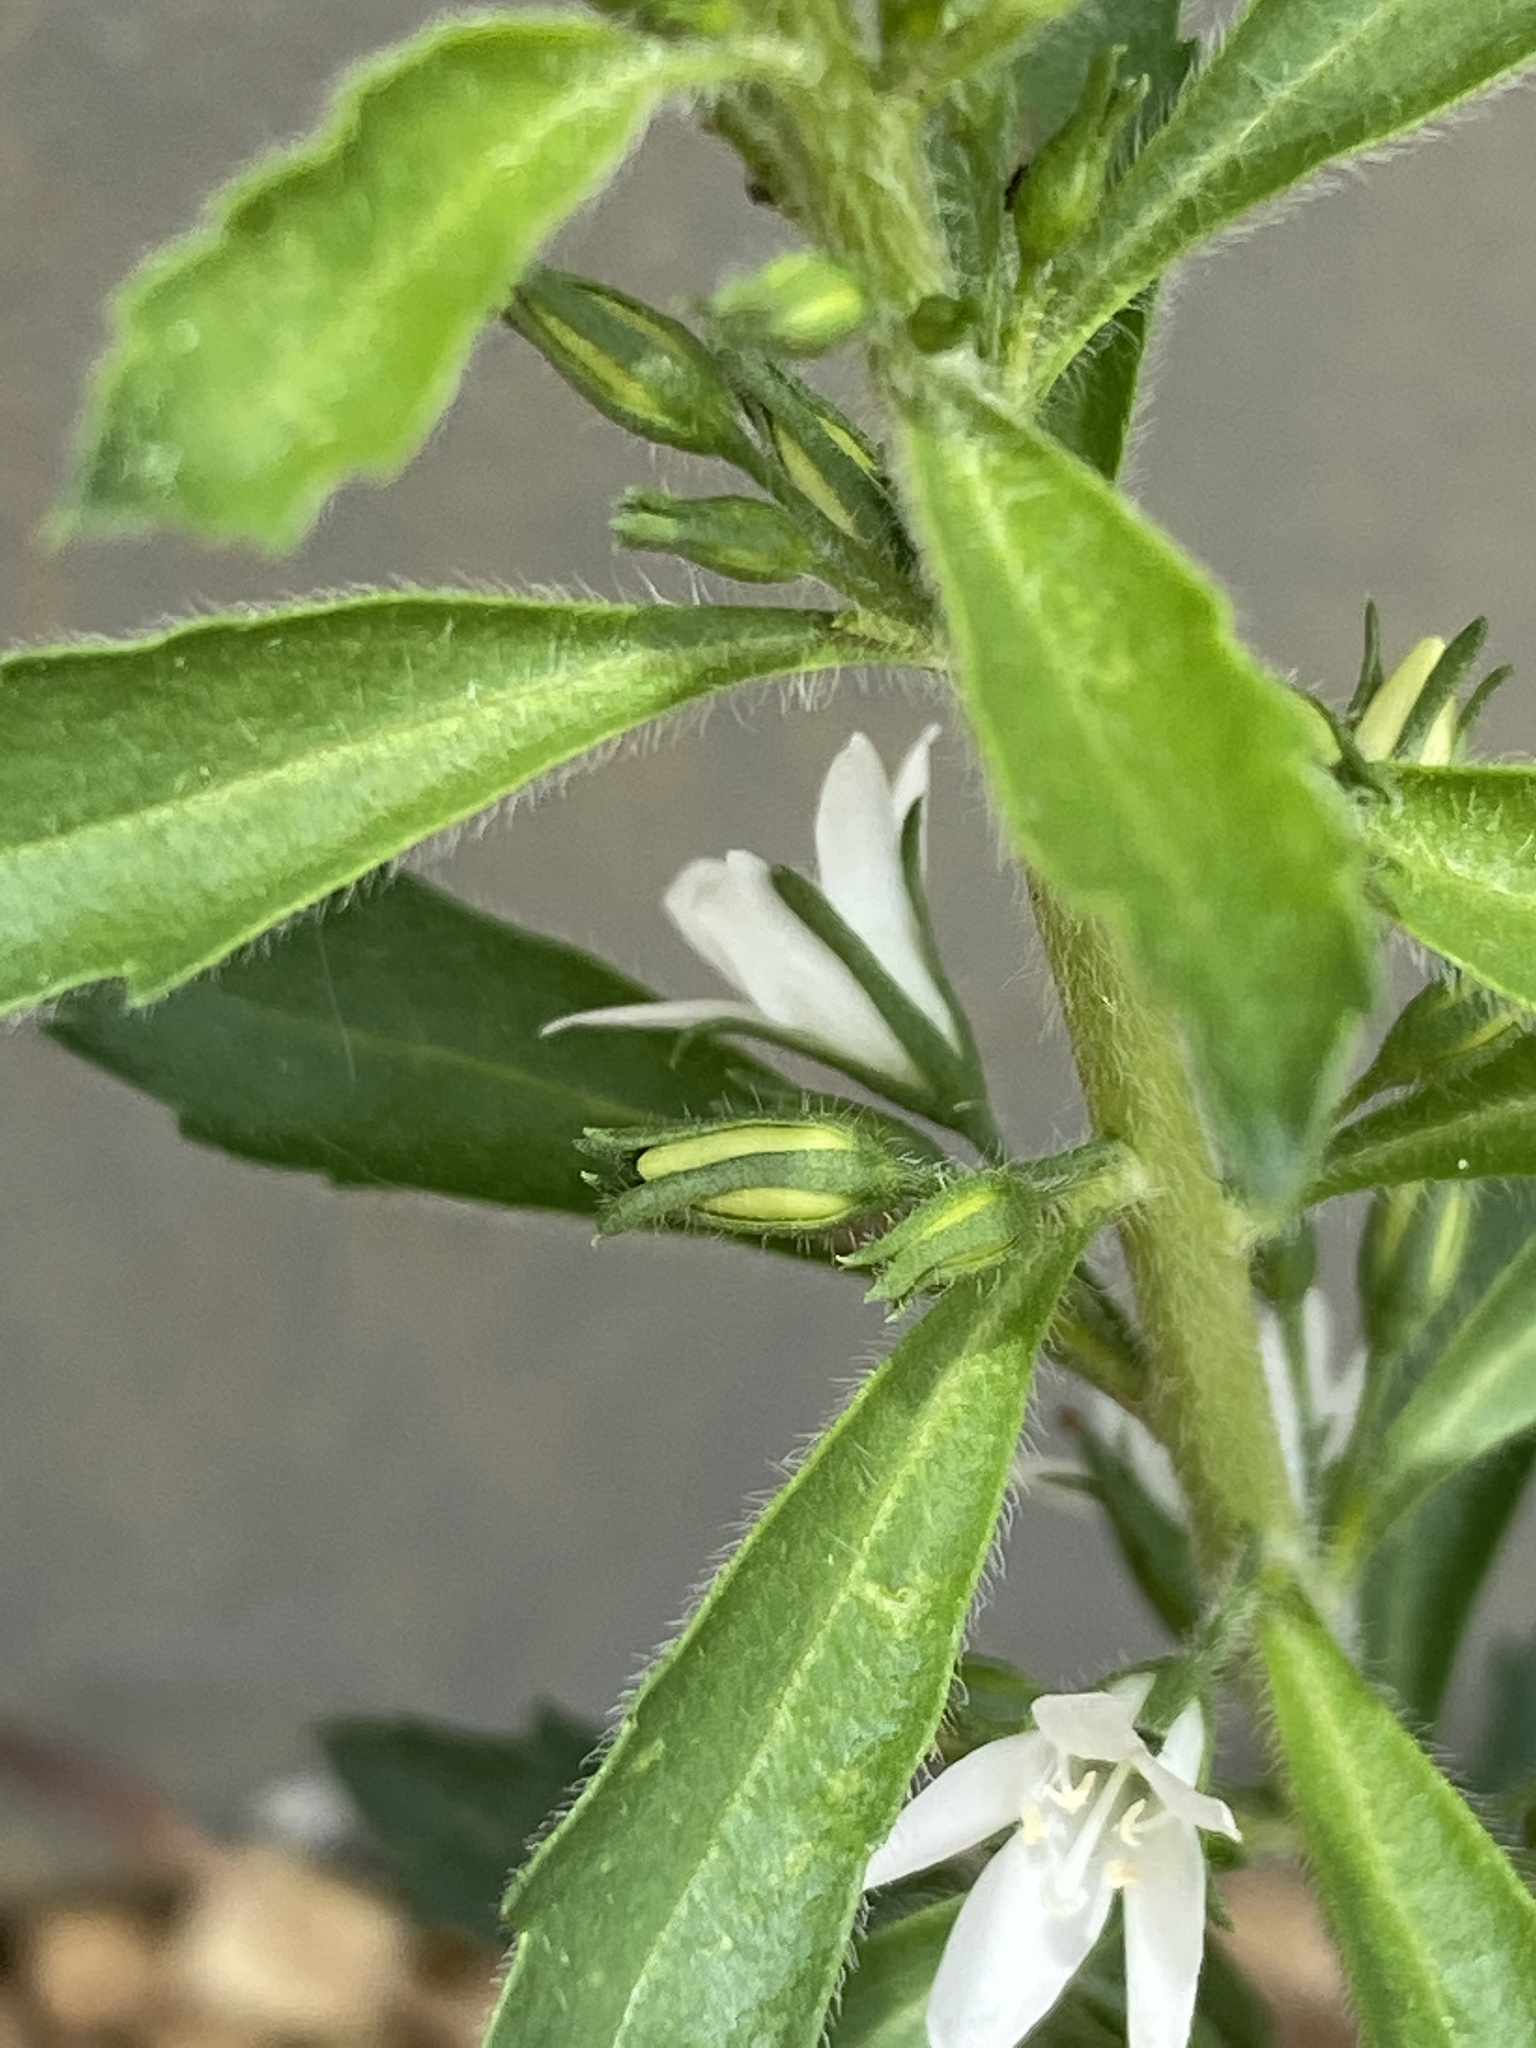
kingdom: Plantae
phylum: Tracheophyta
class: Magnoliopsida
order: Lamiales
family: Scrophulariaceae
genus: Capraria
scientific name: Capraria biflora
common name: Goatweed
